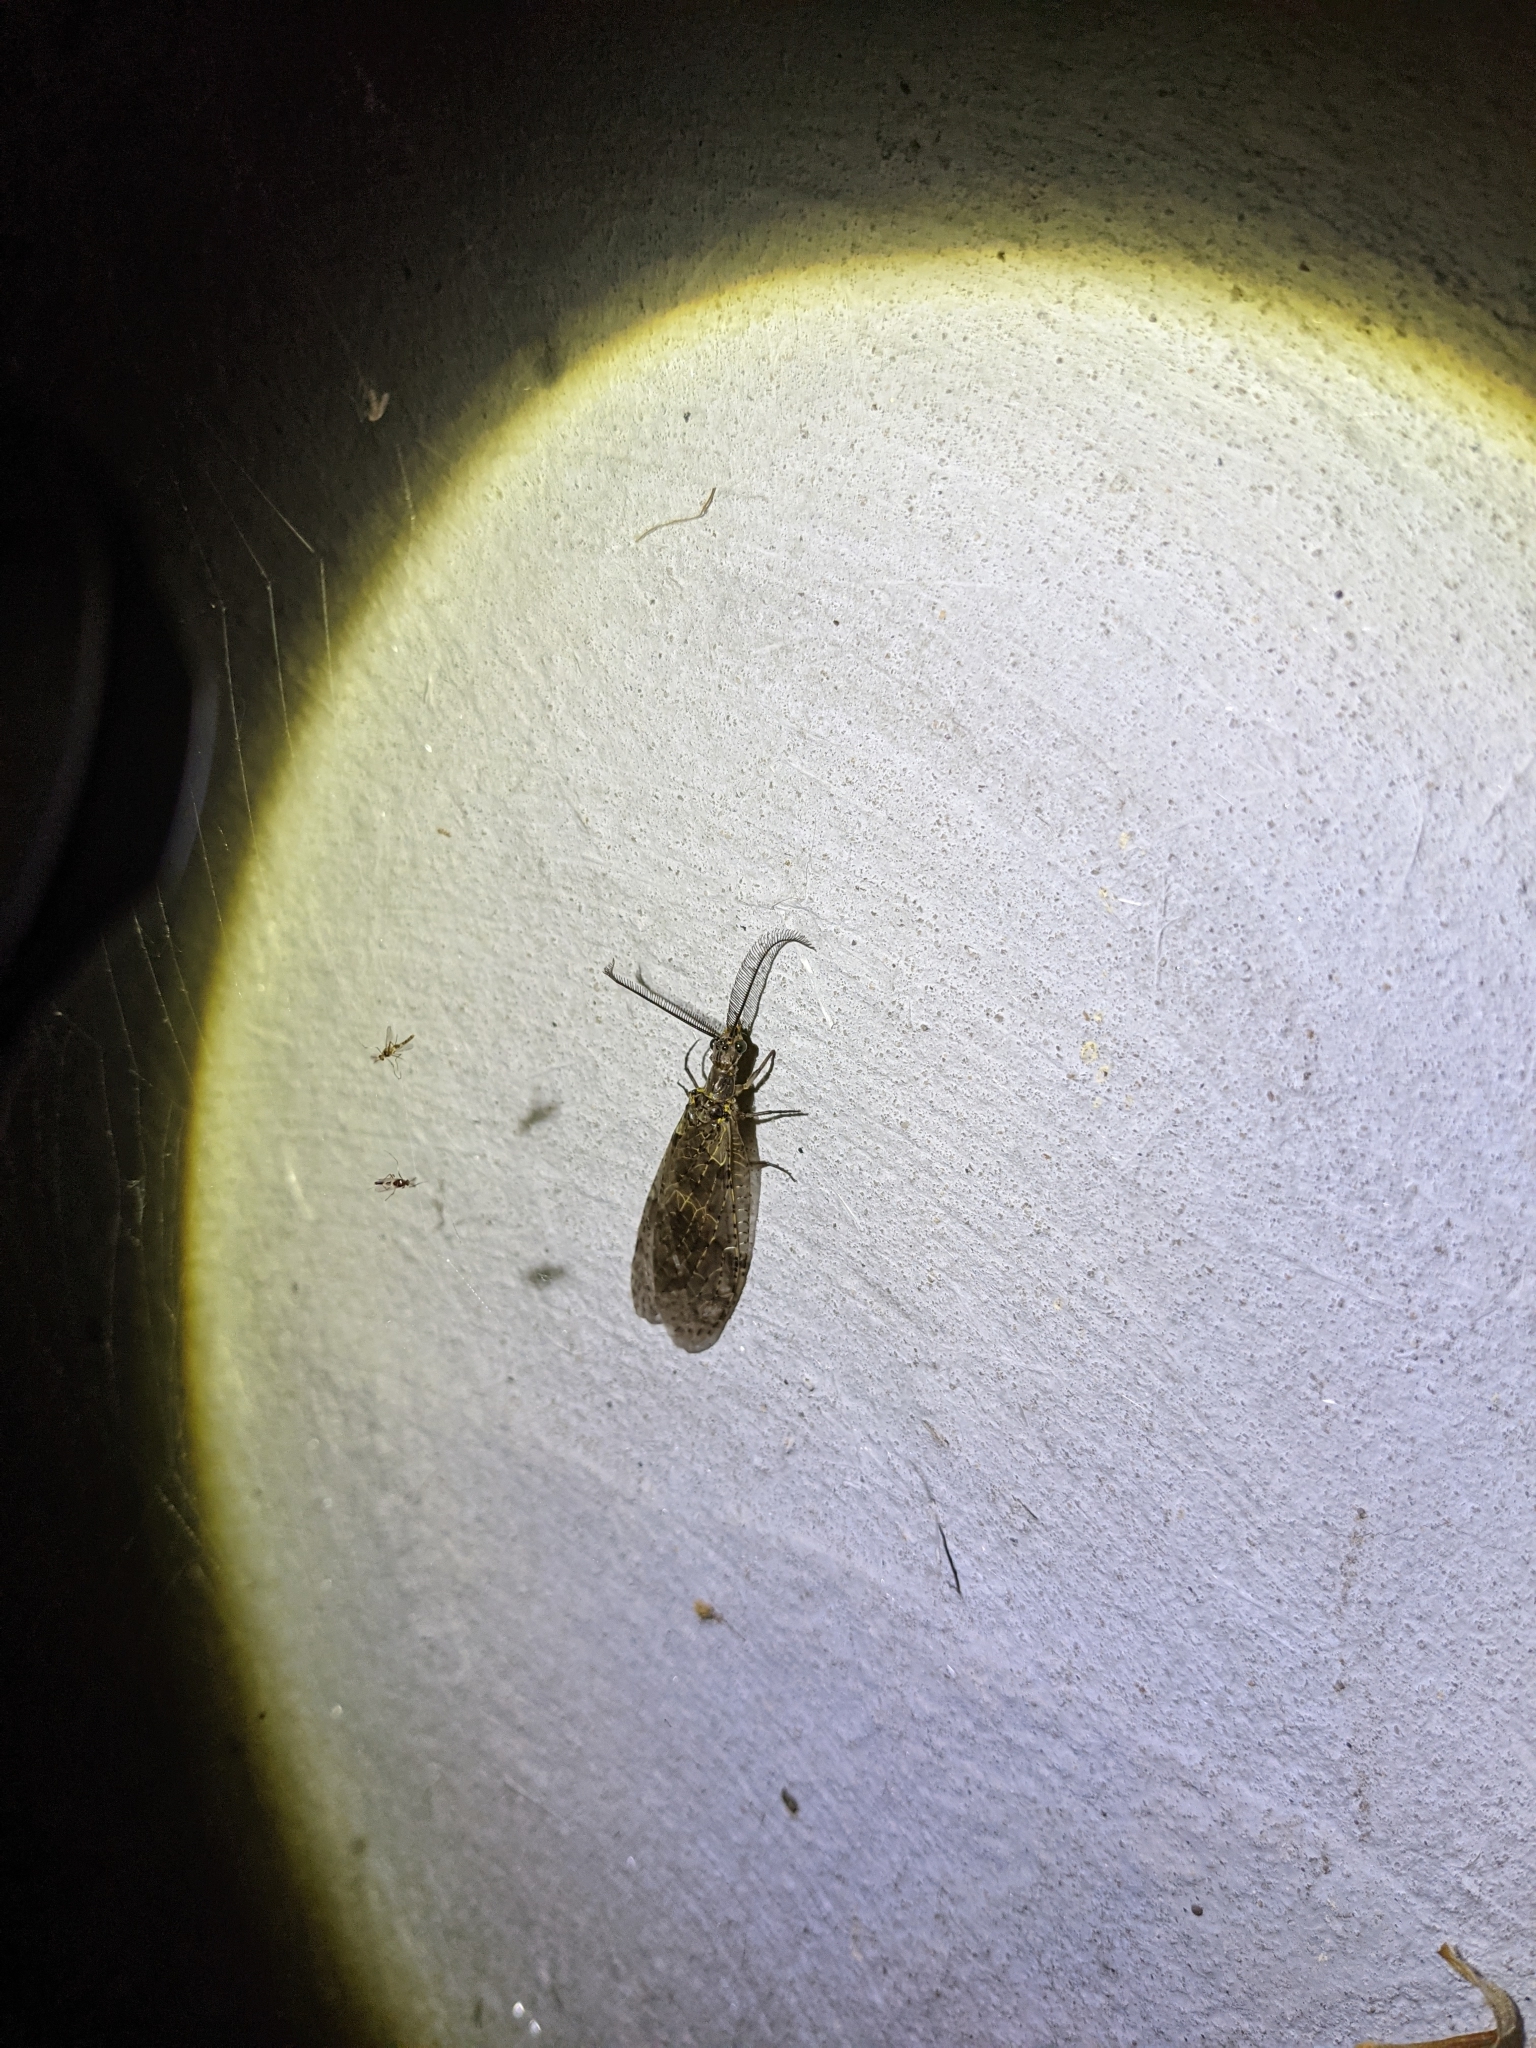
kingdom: Animalia
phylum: Arthropoda
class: Insecta
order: Megaloptera
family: Corydalidae
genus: Chauliodes
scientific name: Chauliodes rastricornis
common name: Spring fishfly
